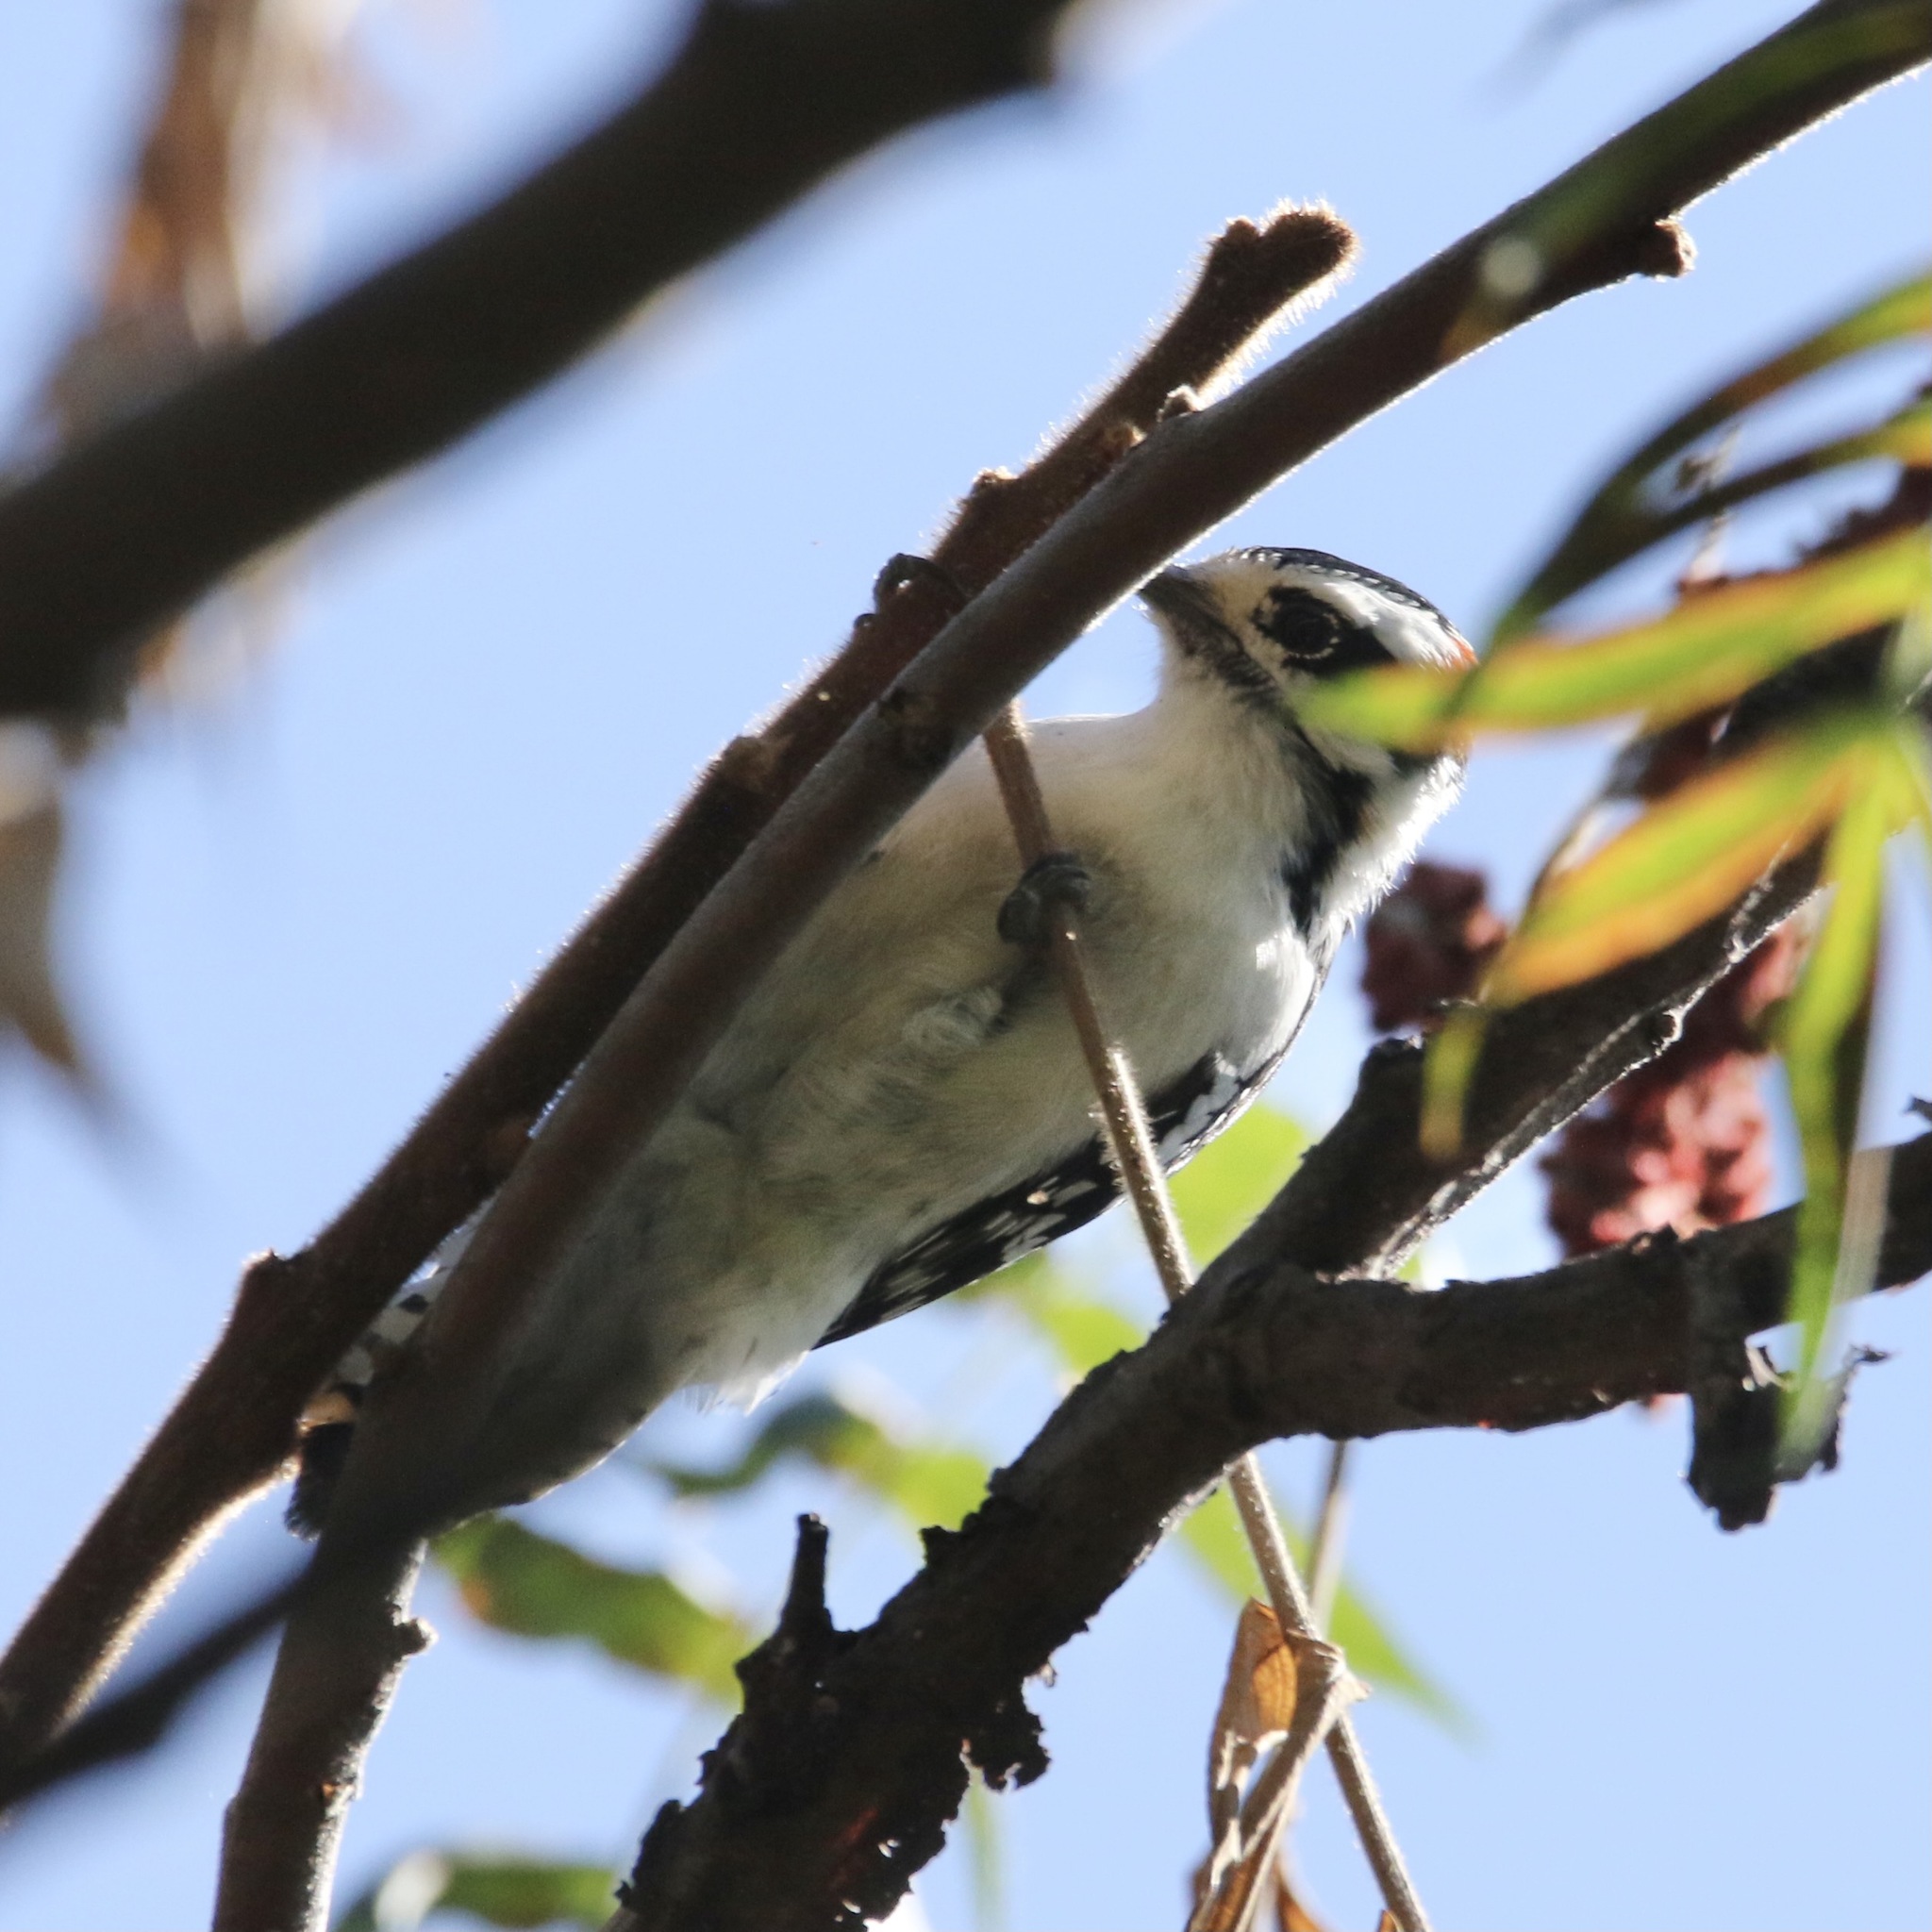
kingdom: Animalia
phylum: Chordata
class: Aves
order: Piciformes
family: Picidae
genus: Dryobates
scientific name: Dryobates pubescens
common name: Downy woodpecker
